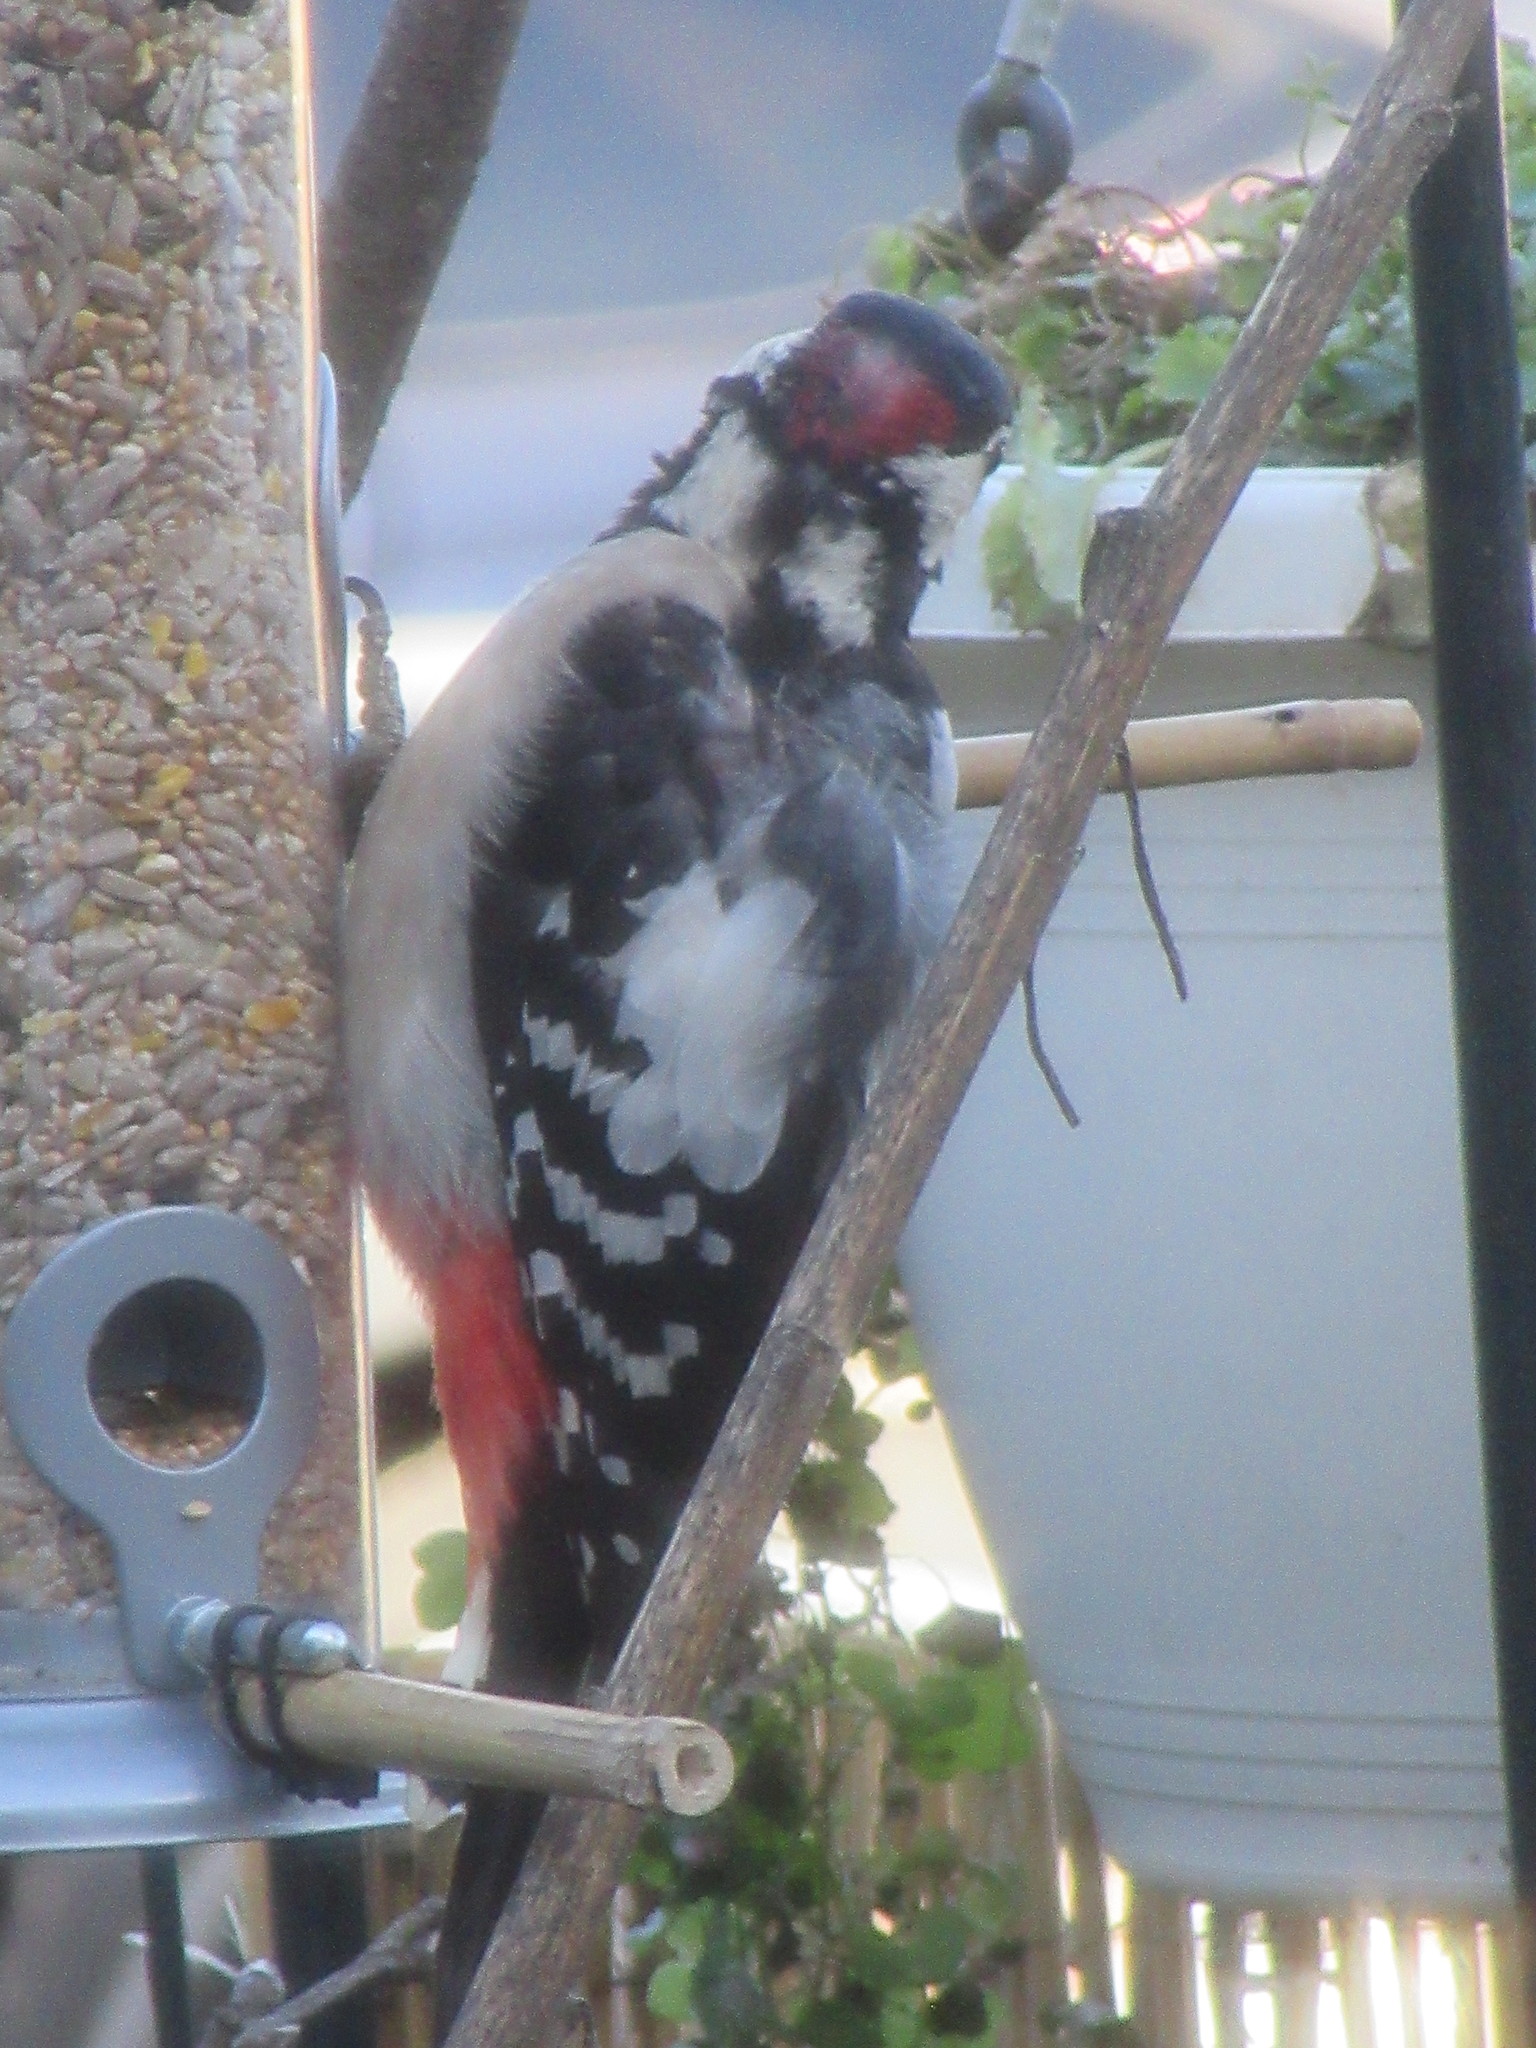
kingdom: Animalia
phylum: Chordata
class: Aves
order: Piciformes
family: Picidae
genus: Dendrocopos
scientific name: Dendrocopos major
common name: Great spotted woodpecker
